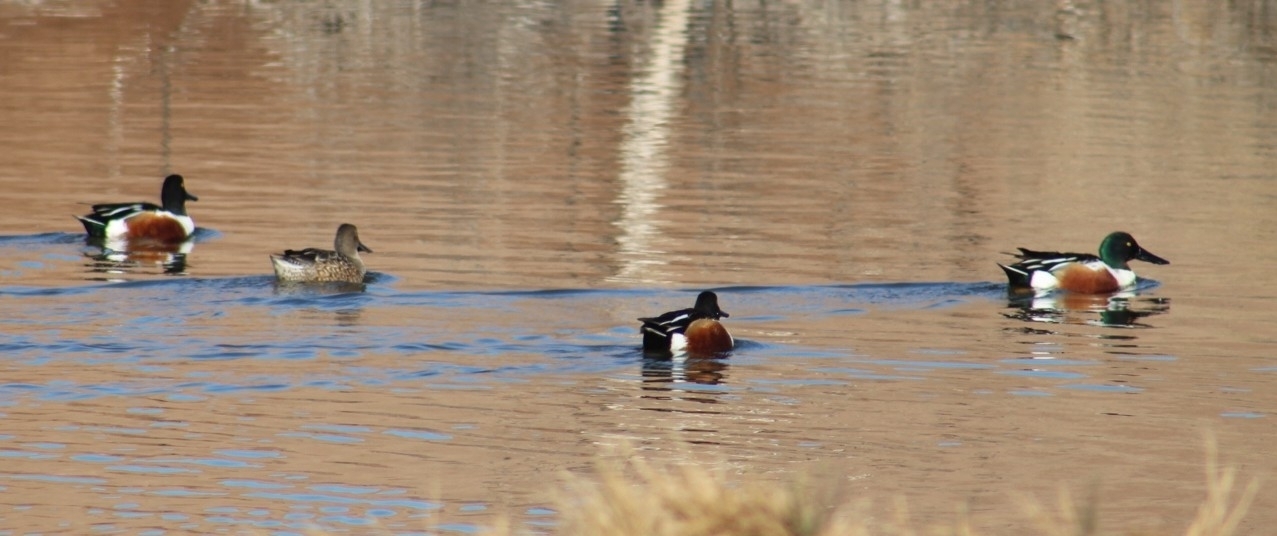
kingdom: Animalia
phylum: Chordata
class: Aves
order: Anseriformes
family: Anatidae
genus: Spatula
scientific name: Spatula clypeata
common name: Northern shoveler
